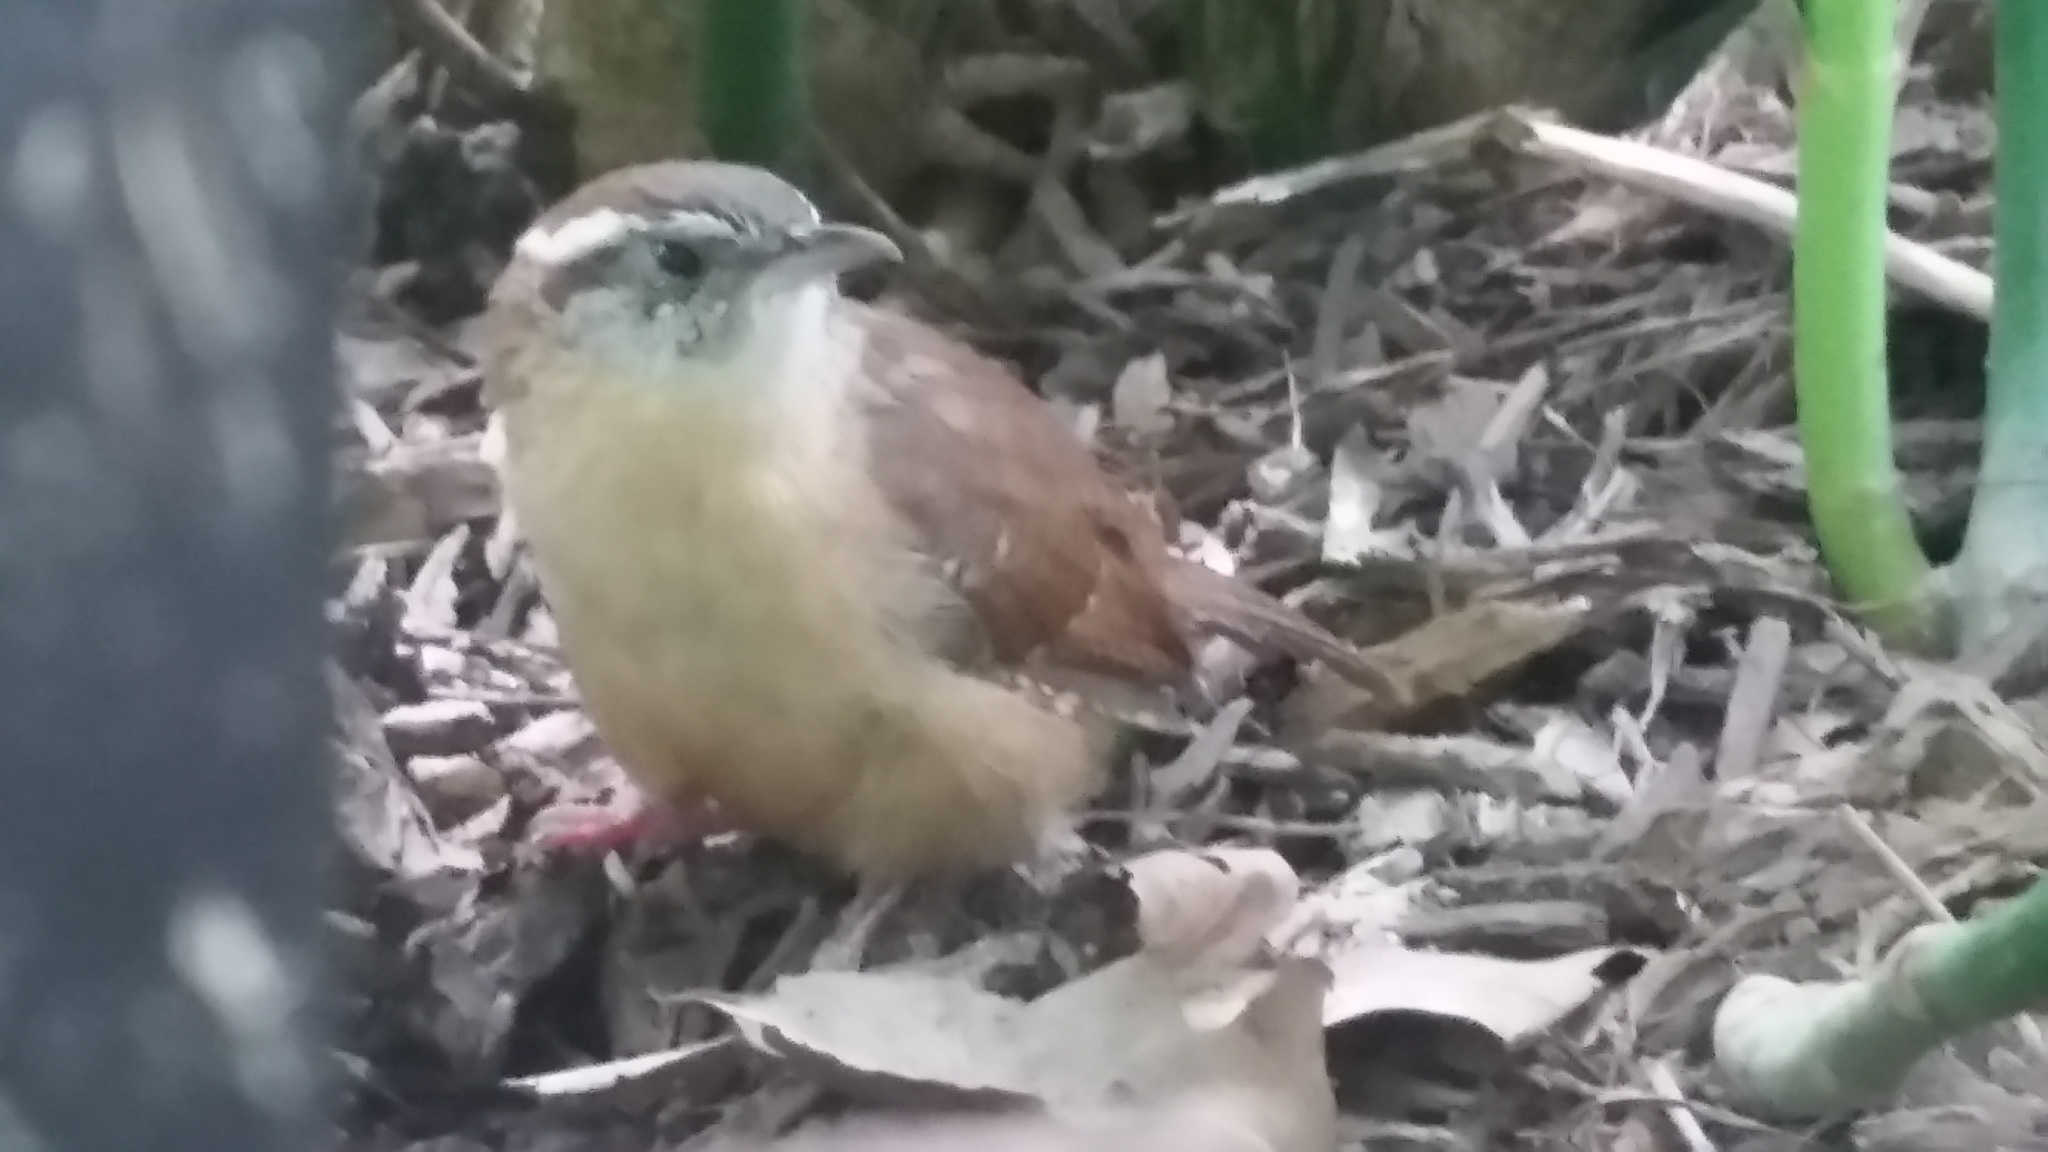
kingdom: Animalia
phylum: Chordata
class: Aves
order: Passeriformes
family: Troglodytidae
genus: Thryothorus
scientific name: Thryothorus ludovicianus
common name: Carolina wren
